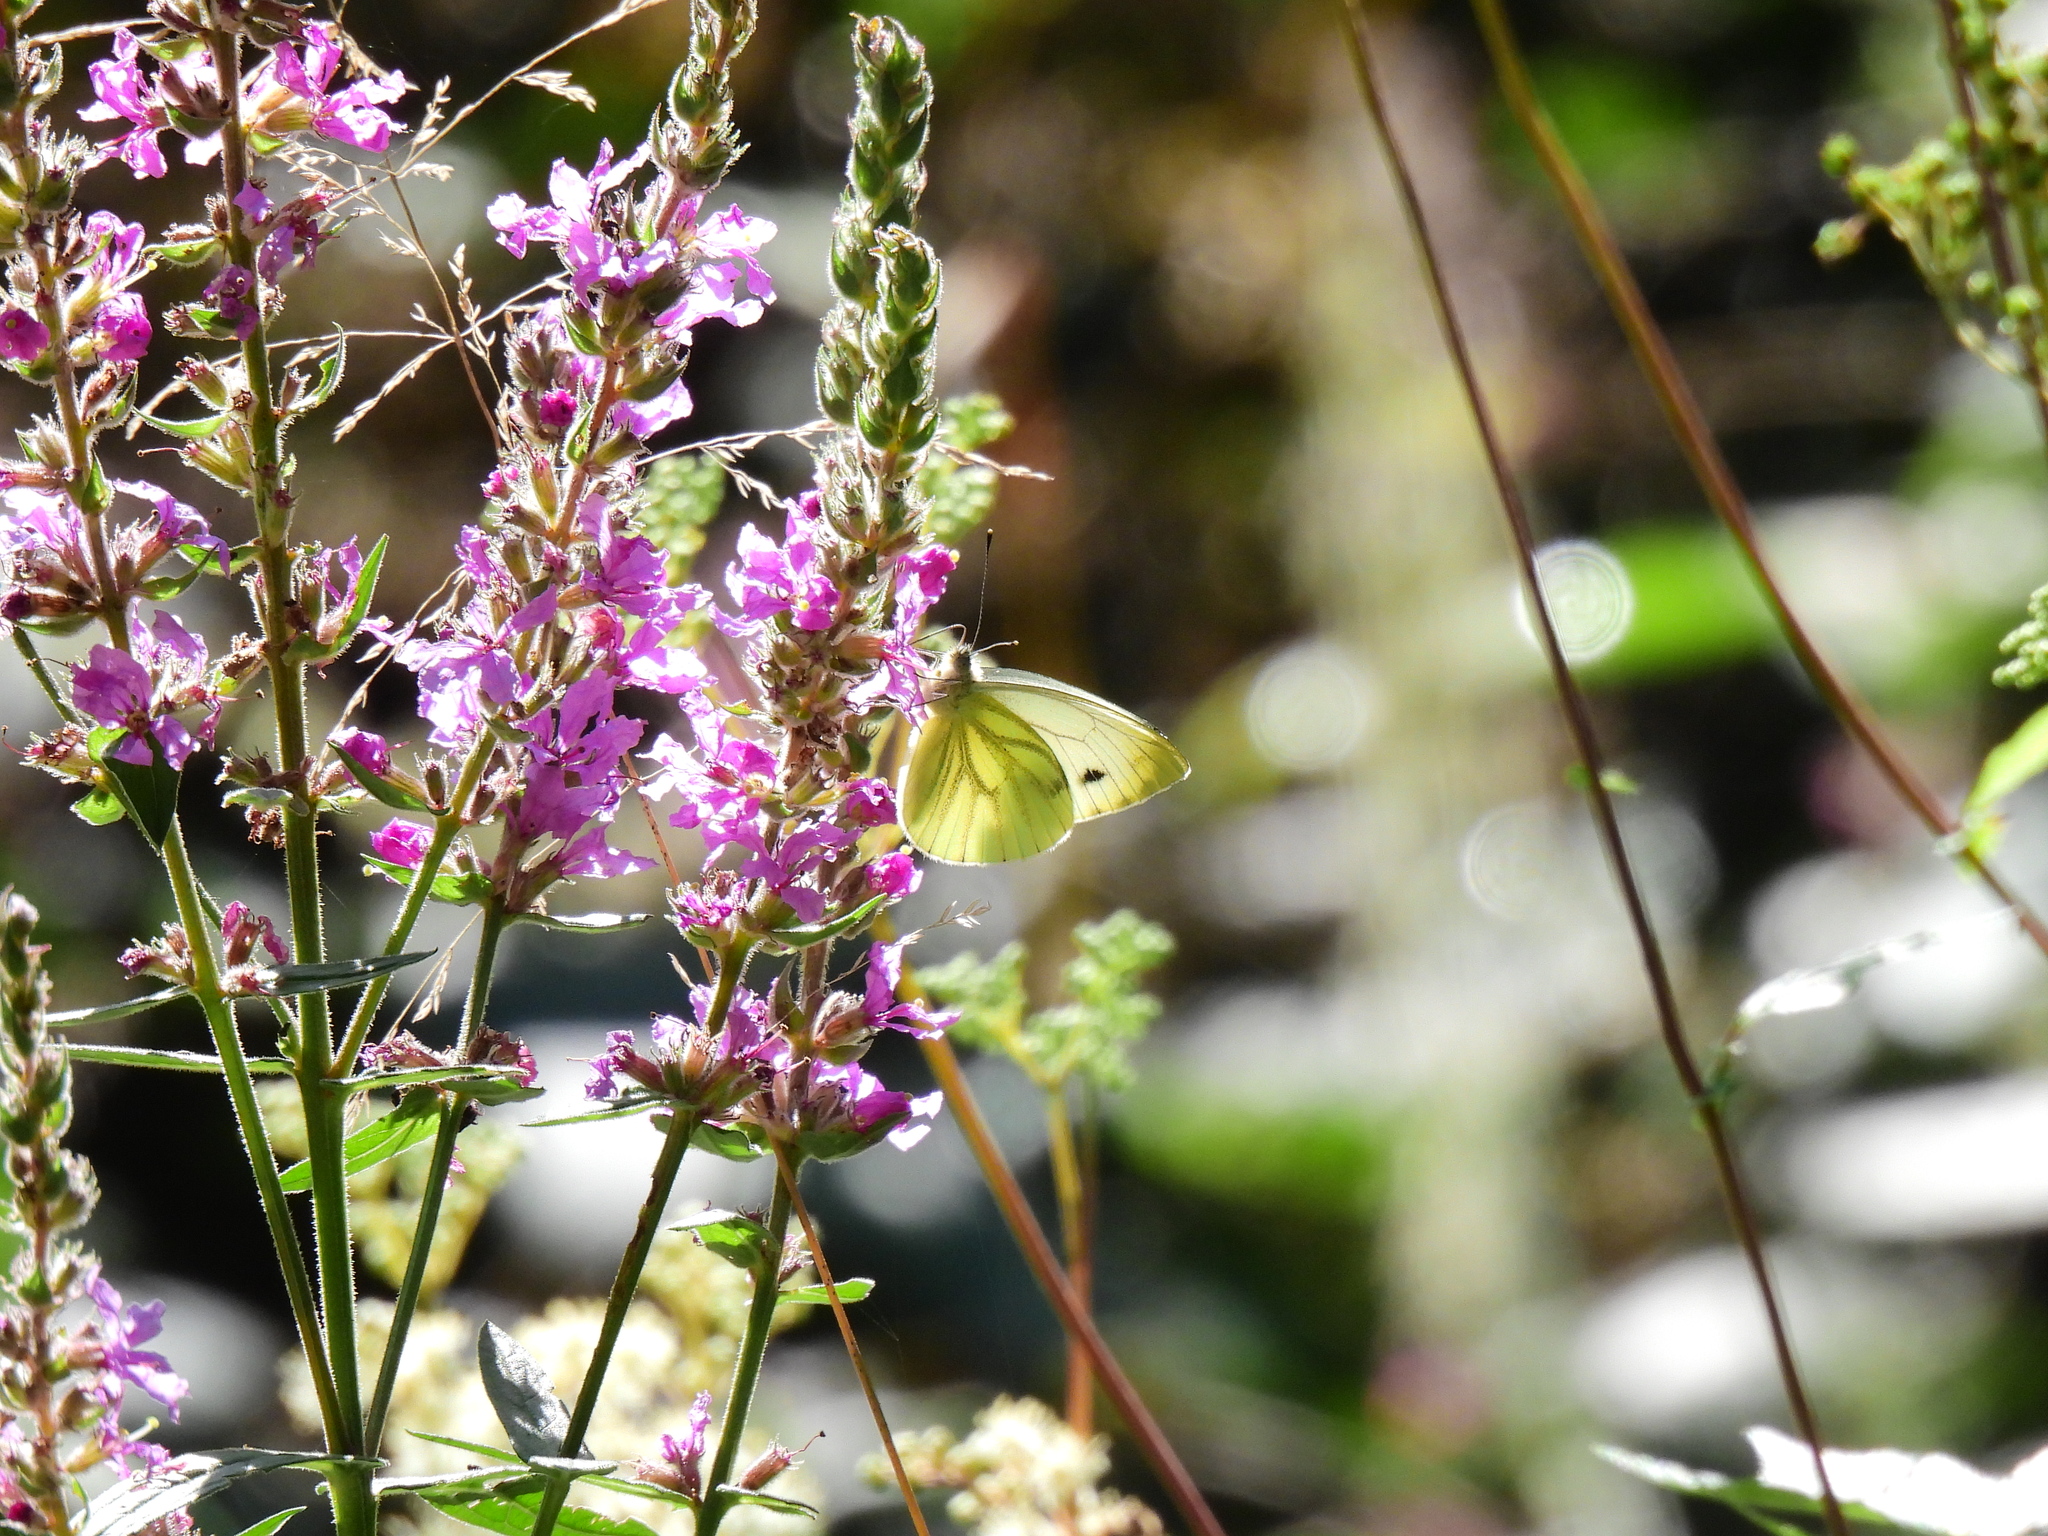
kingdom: Animalia
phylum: Arthropoda
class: Insecta
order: Lepidoptera
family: Pieridae
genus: Pieris
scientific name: Pieris napi
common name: Green-veined white
